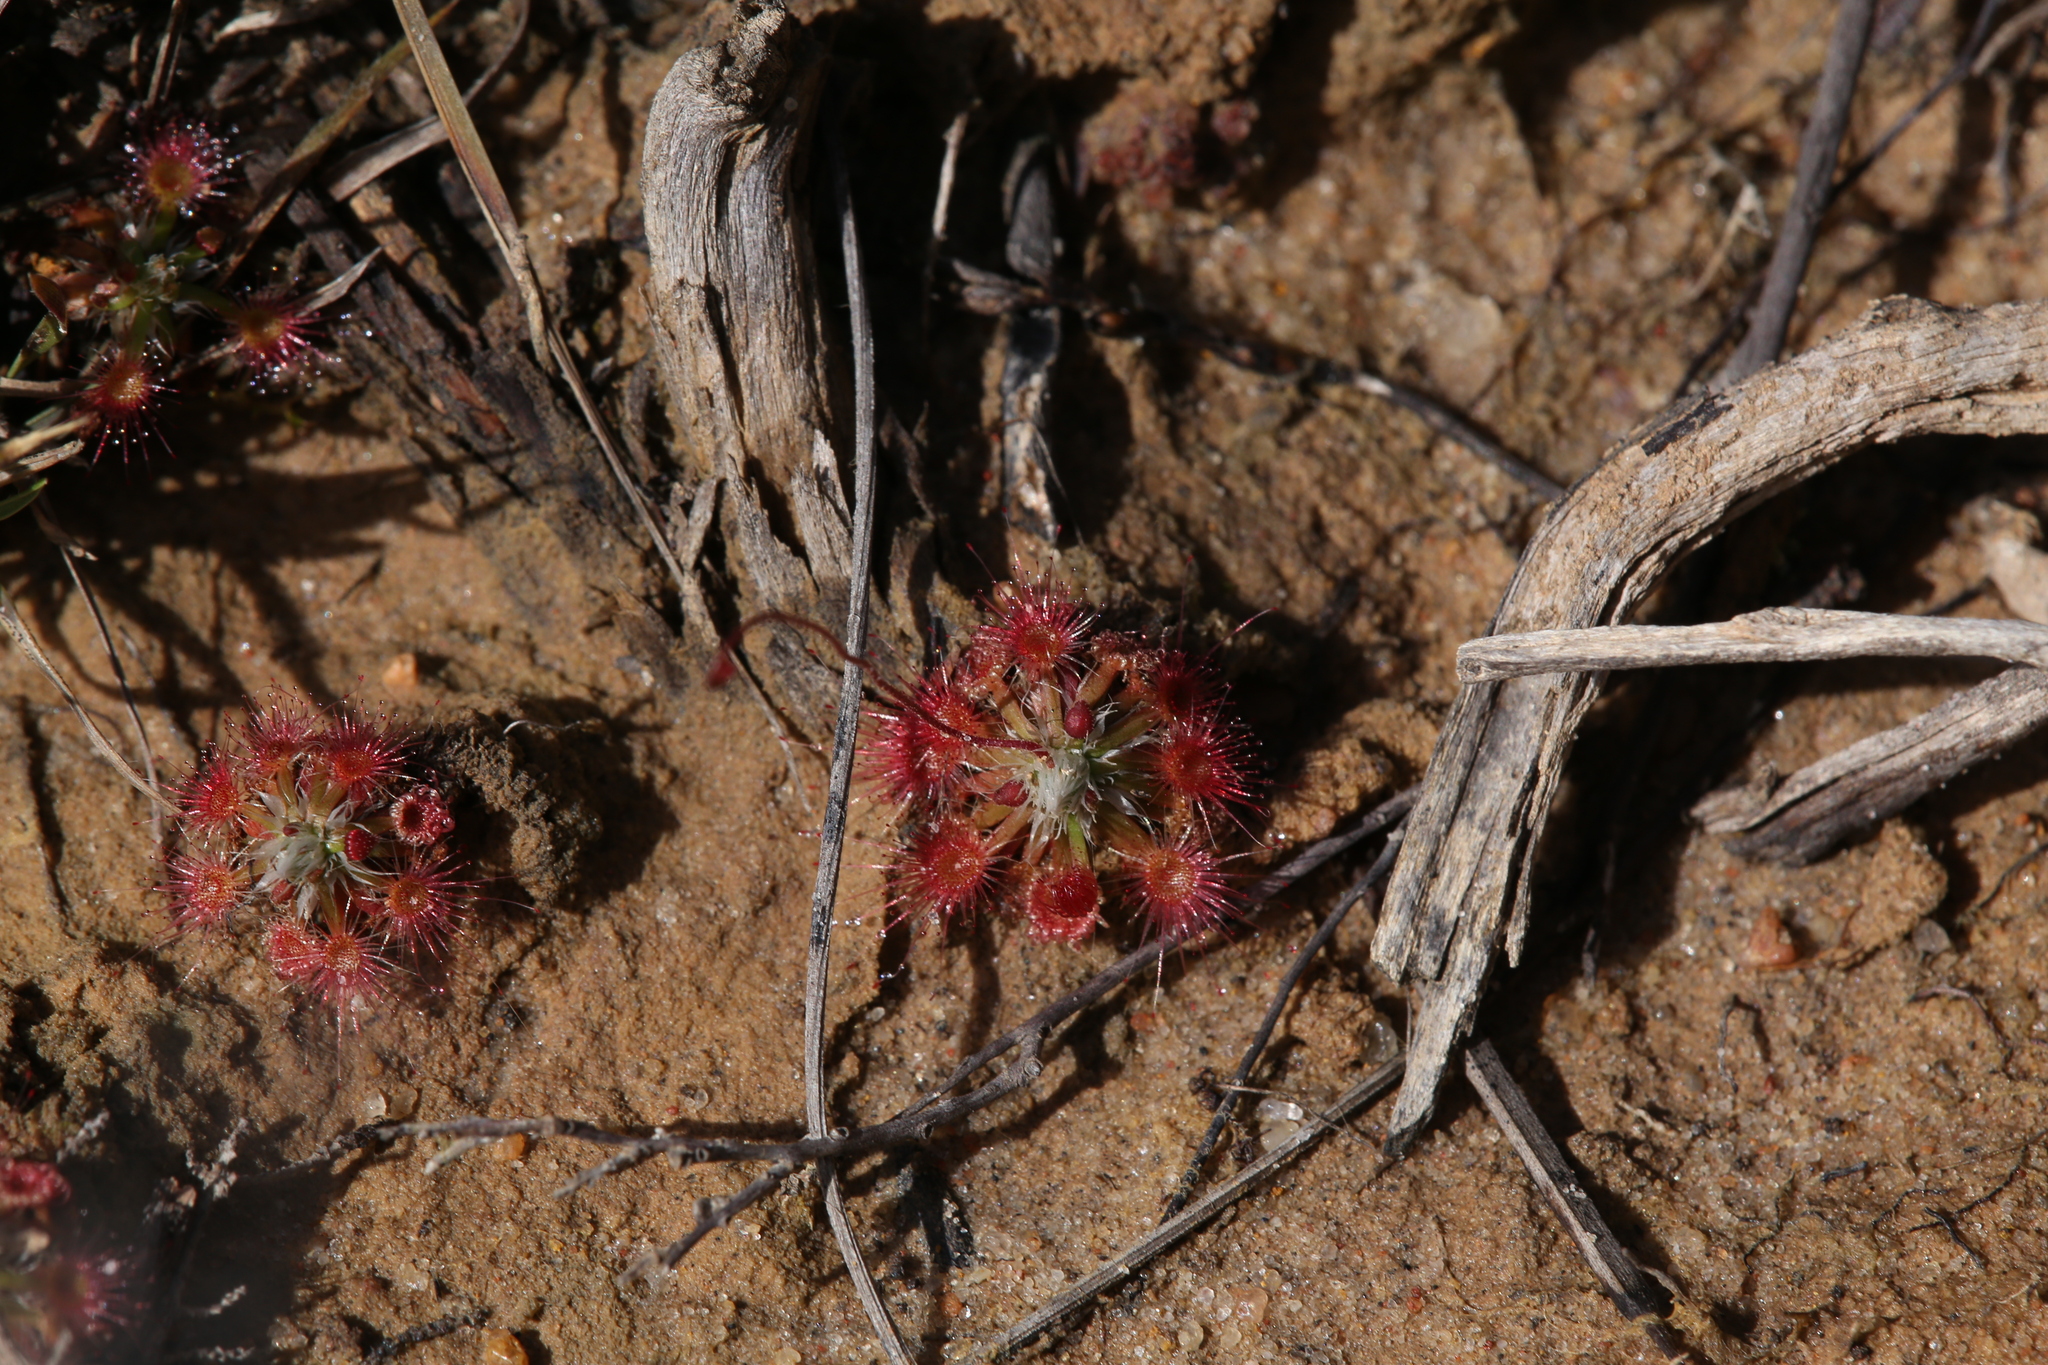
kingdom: Plantae
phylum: Tracheophyta
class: Magnoliopsida
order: Caryophyllales
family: Droseraceae
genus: Drosera
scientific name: Drosera spilos
